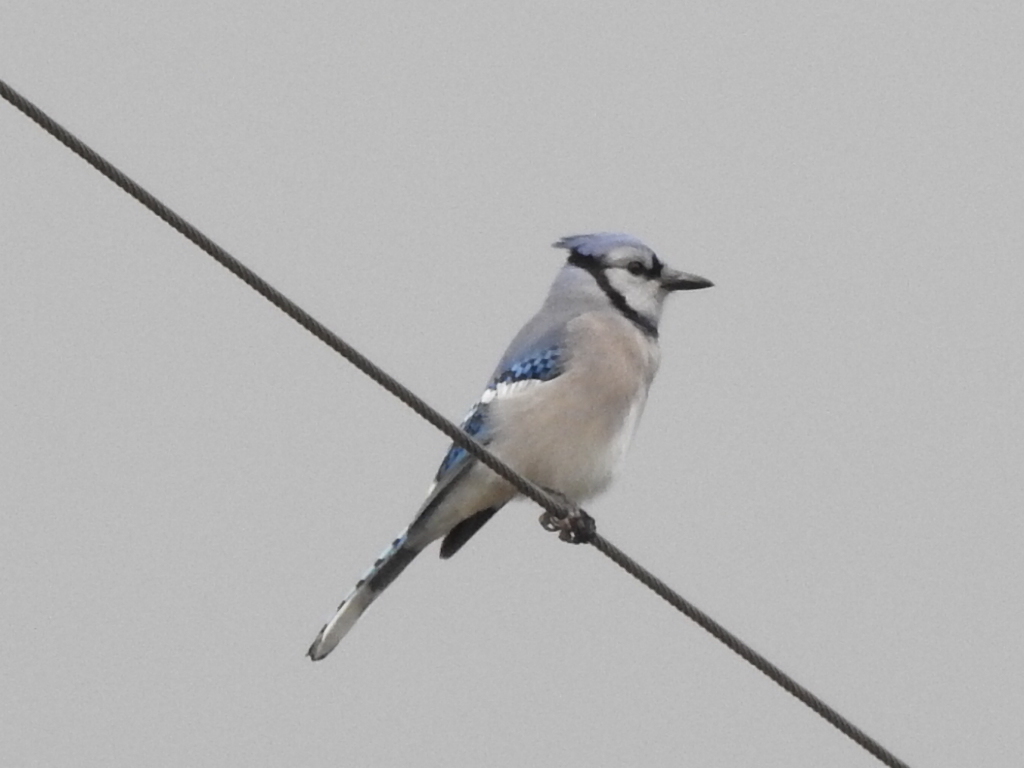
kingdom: Animalia
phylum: Chordata
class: Aves
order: Passeriformes
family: Corvidae
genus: Cyanocitta
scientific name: Cyanocitta cristata
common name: Blue jay
